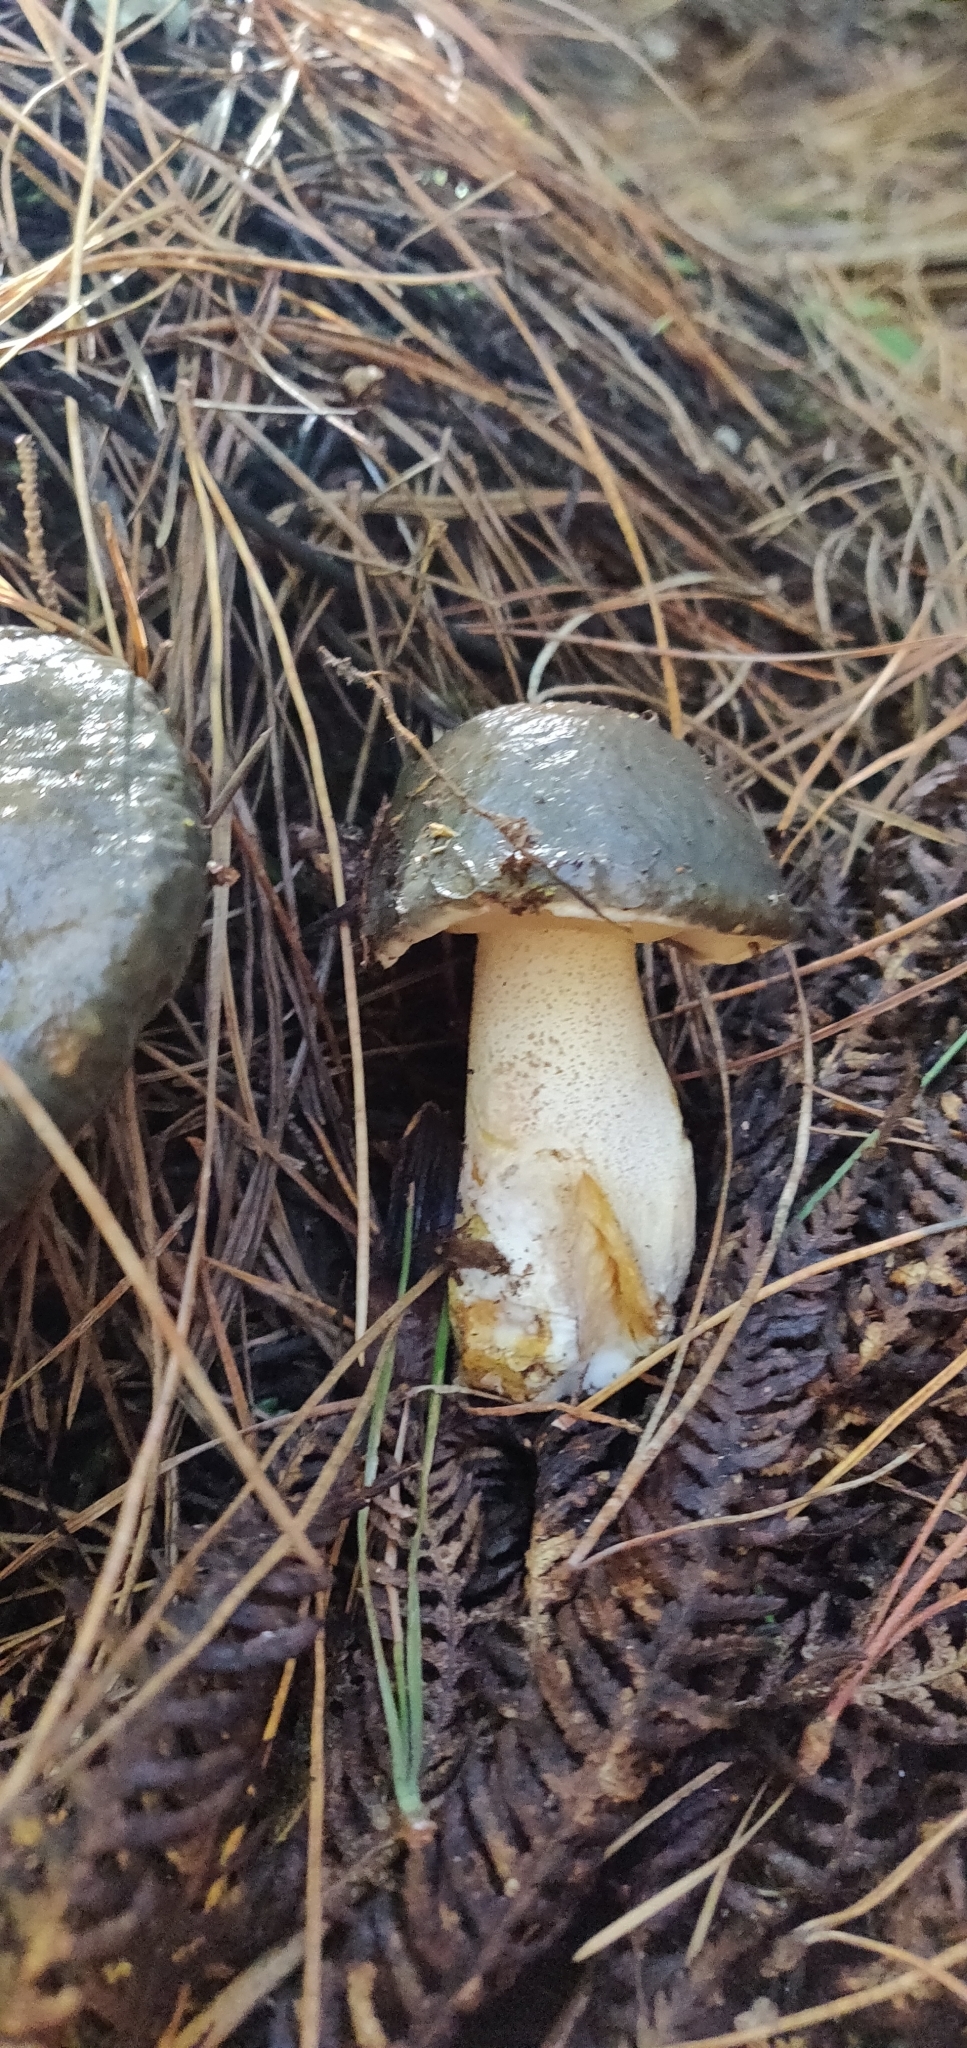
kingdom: Fungi
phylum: Basidiomycota
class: Agaricomycetes
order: Boletales
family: Suillaceae
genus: Suillus
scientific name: Suillus pungens
